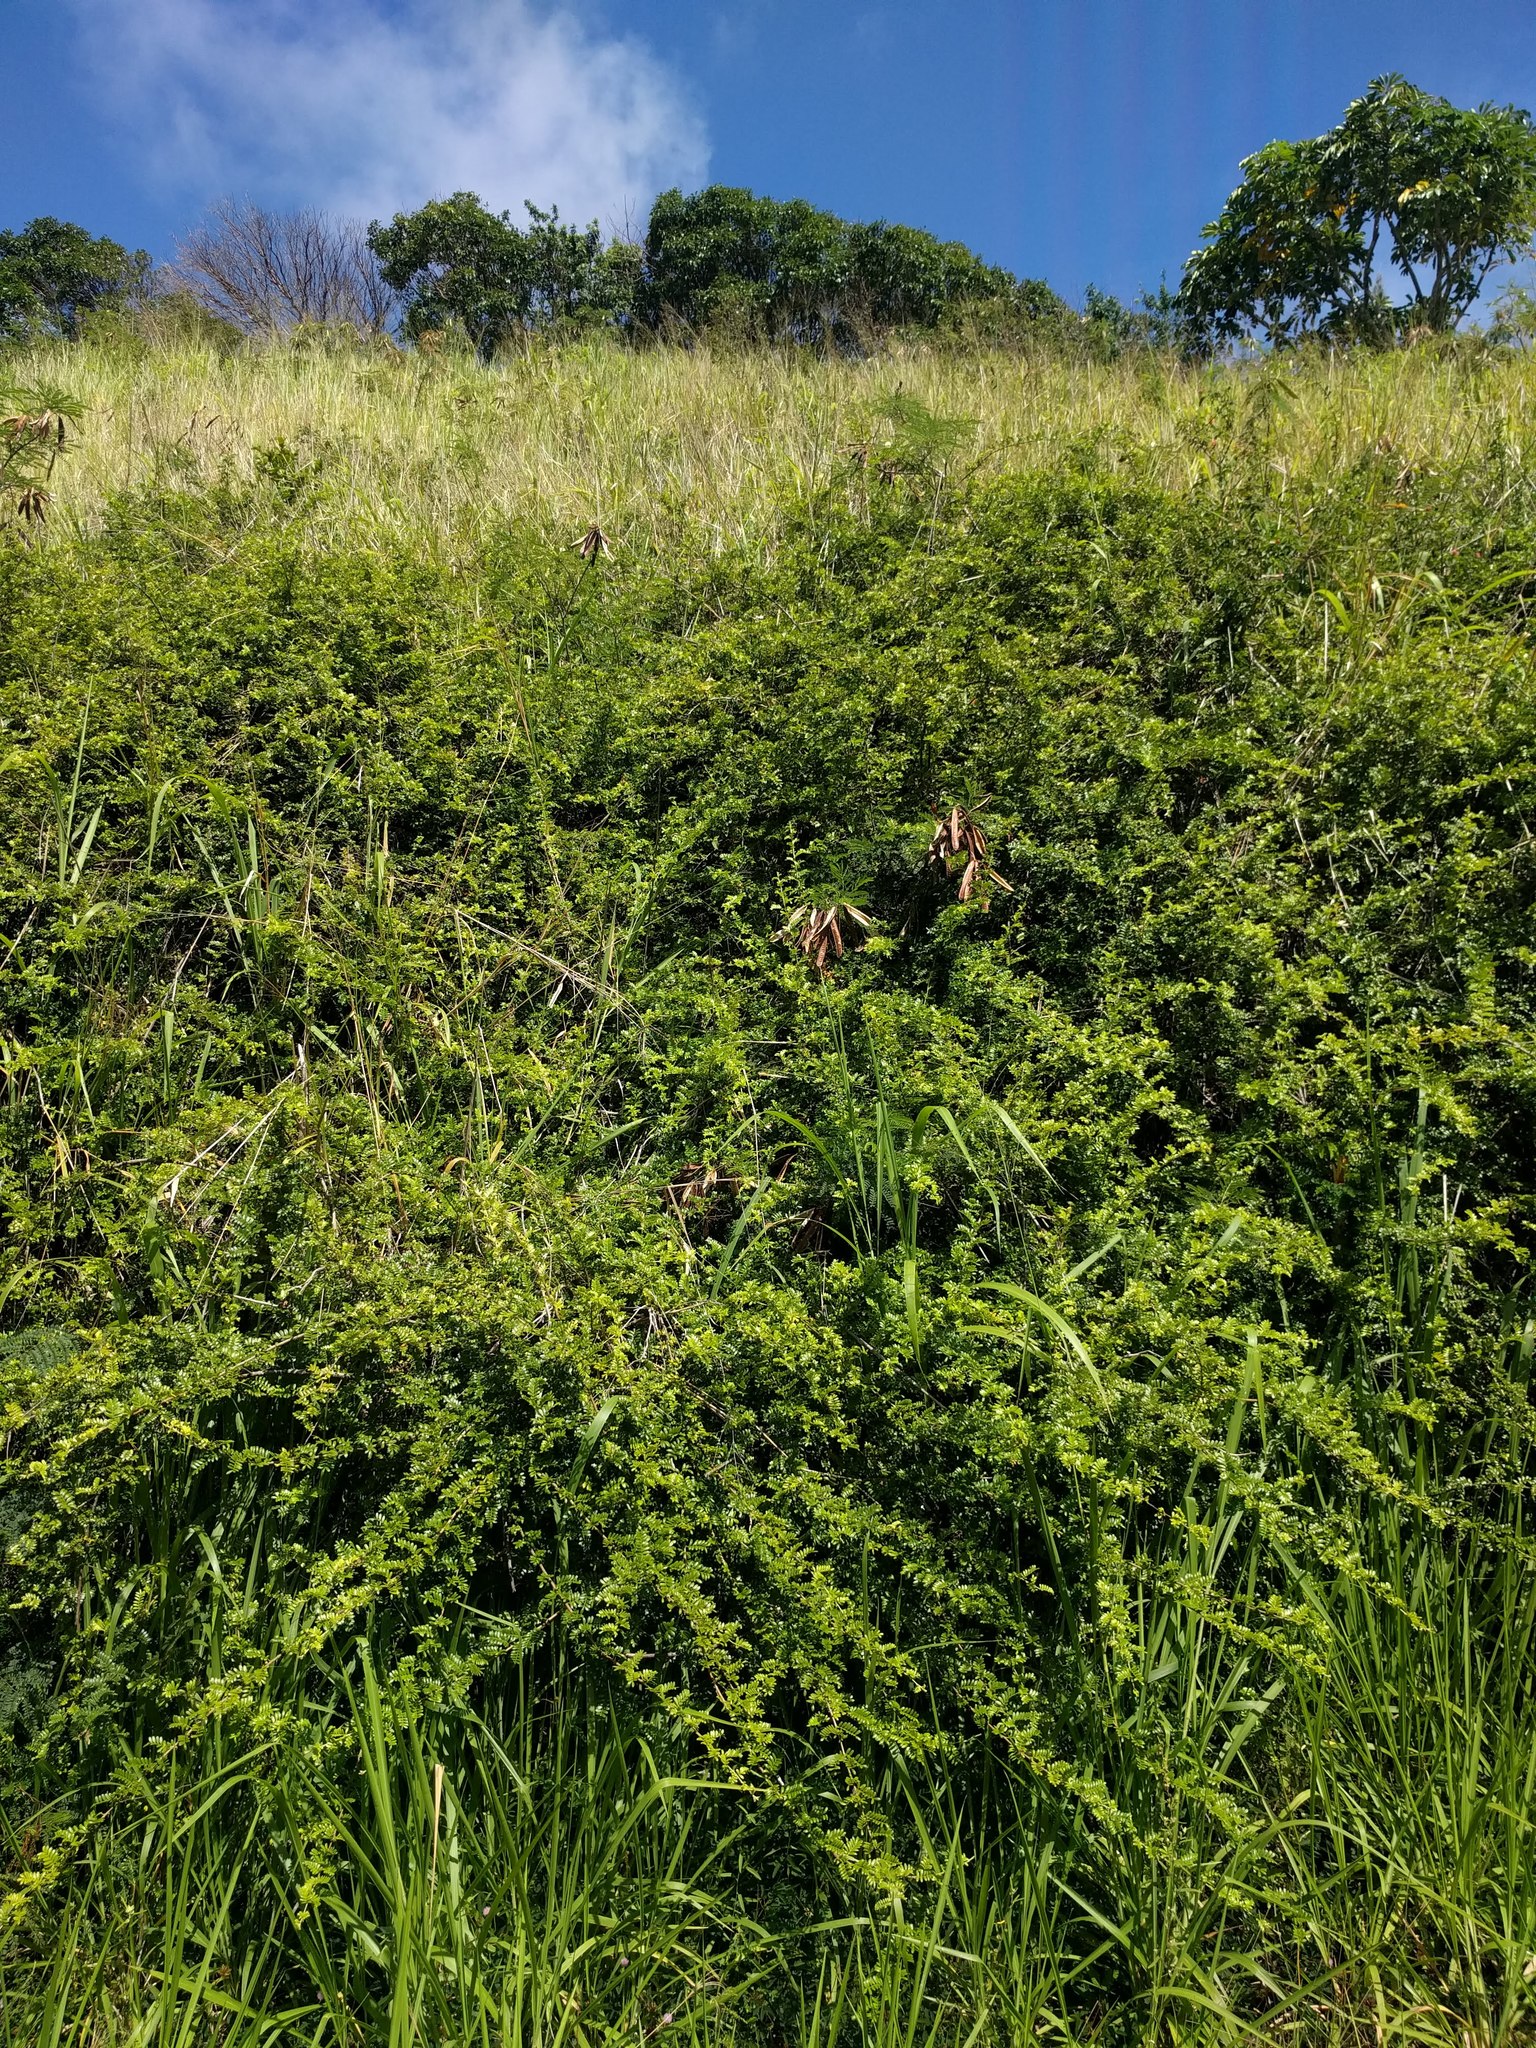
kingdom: Plantae
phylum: Tracheophyta
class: Magnoliopsida
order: Rosales
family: Rosaceae
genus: Osteomeles
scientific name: Osteomeles anthyllidifolia
